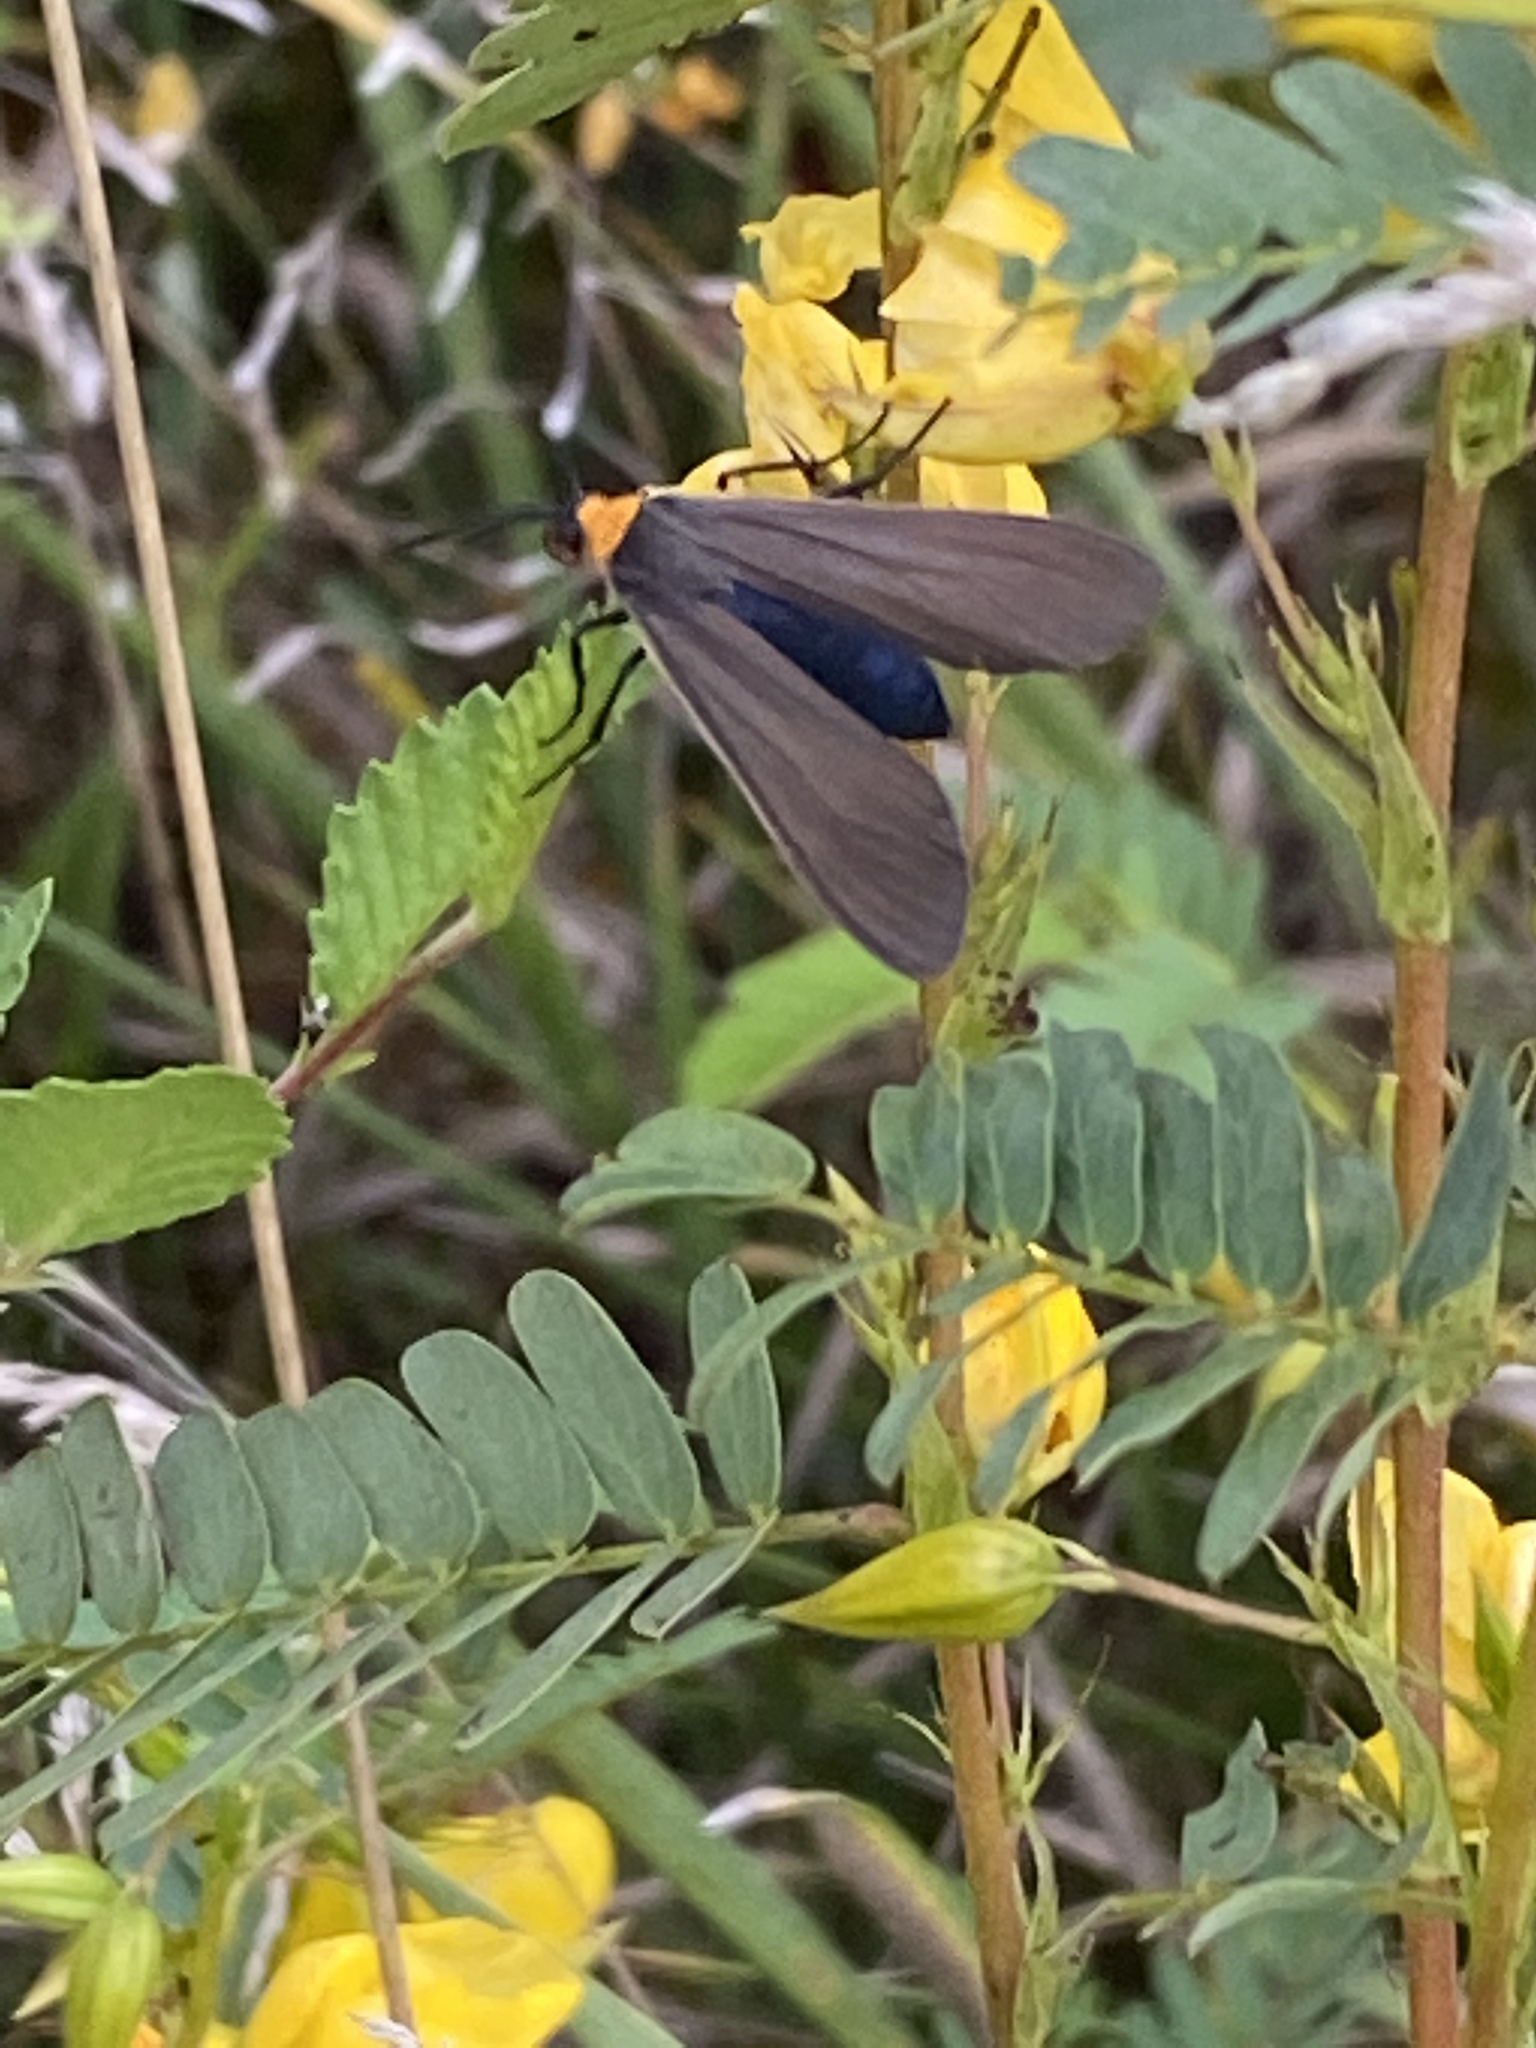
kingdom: Animalia
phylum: Arthropoda
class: Insecta
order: Lepidoptera
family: Erebidae
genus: Cisseps
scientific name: Cisseps fulvicollis
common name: Yellow-collared scape moth
